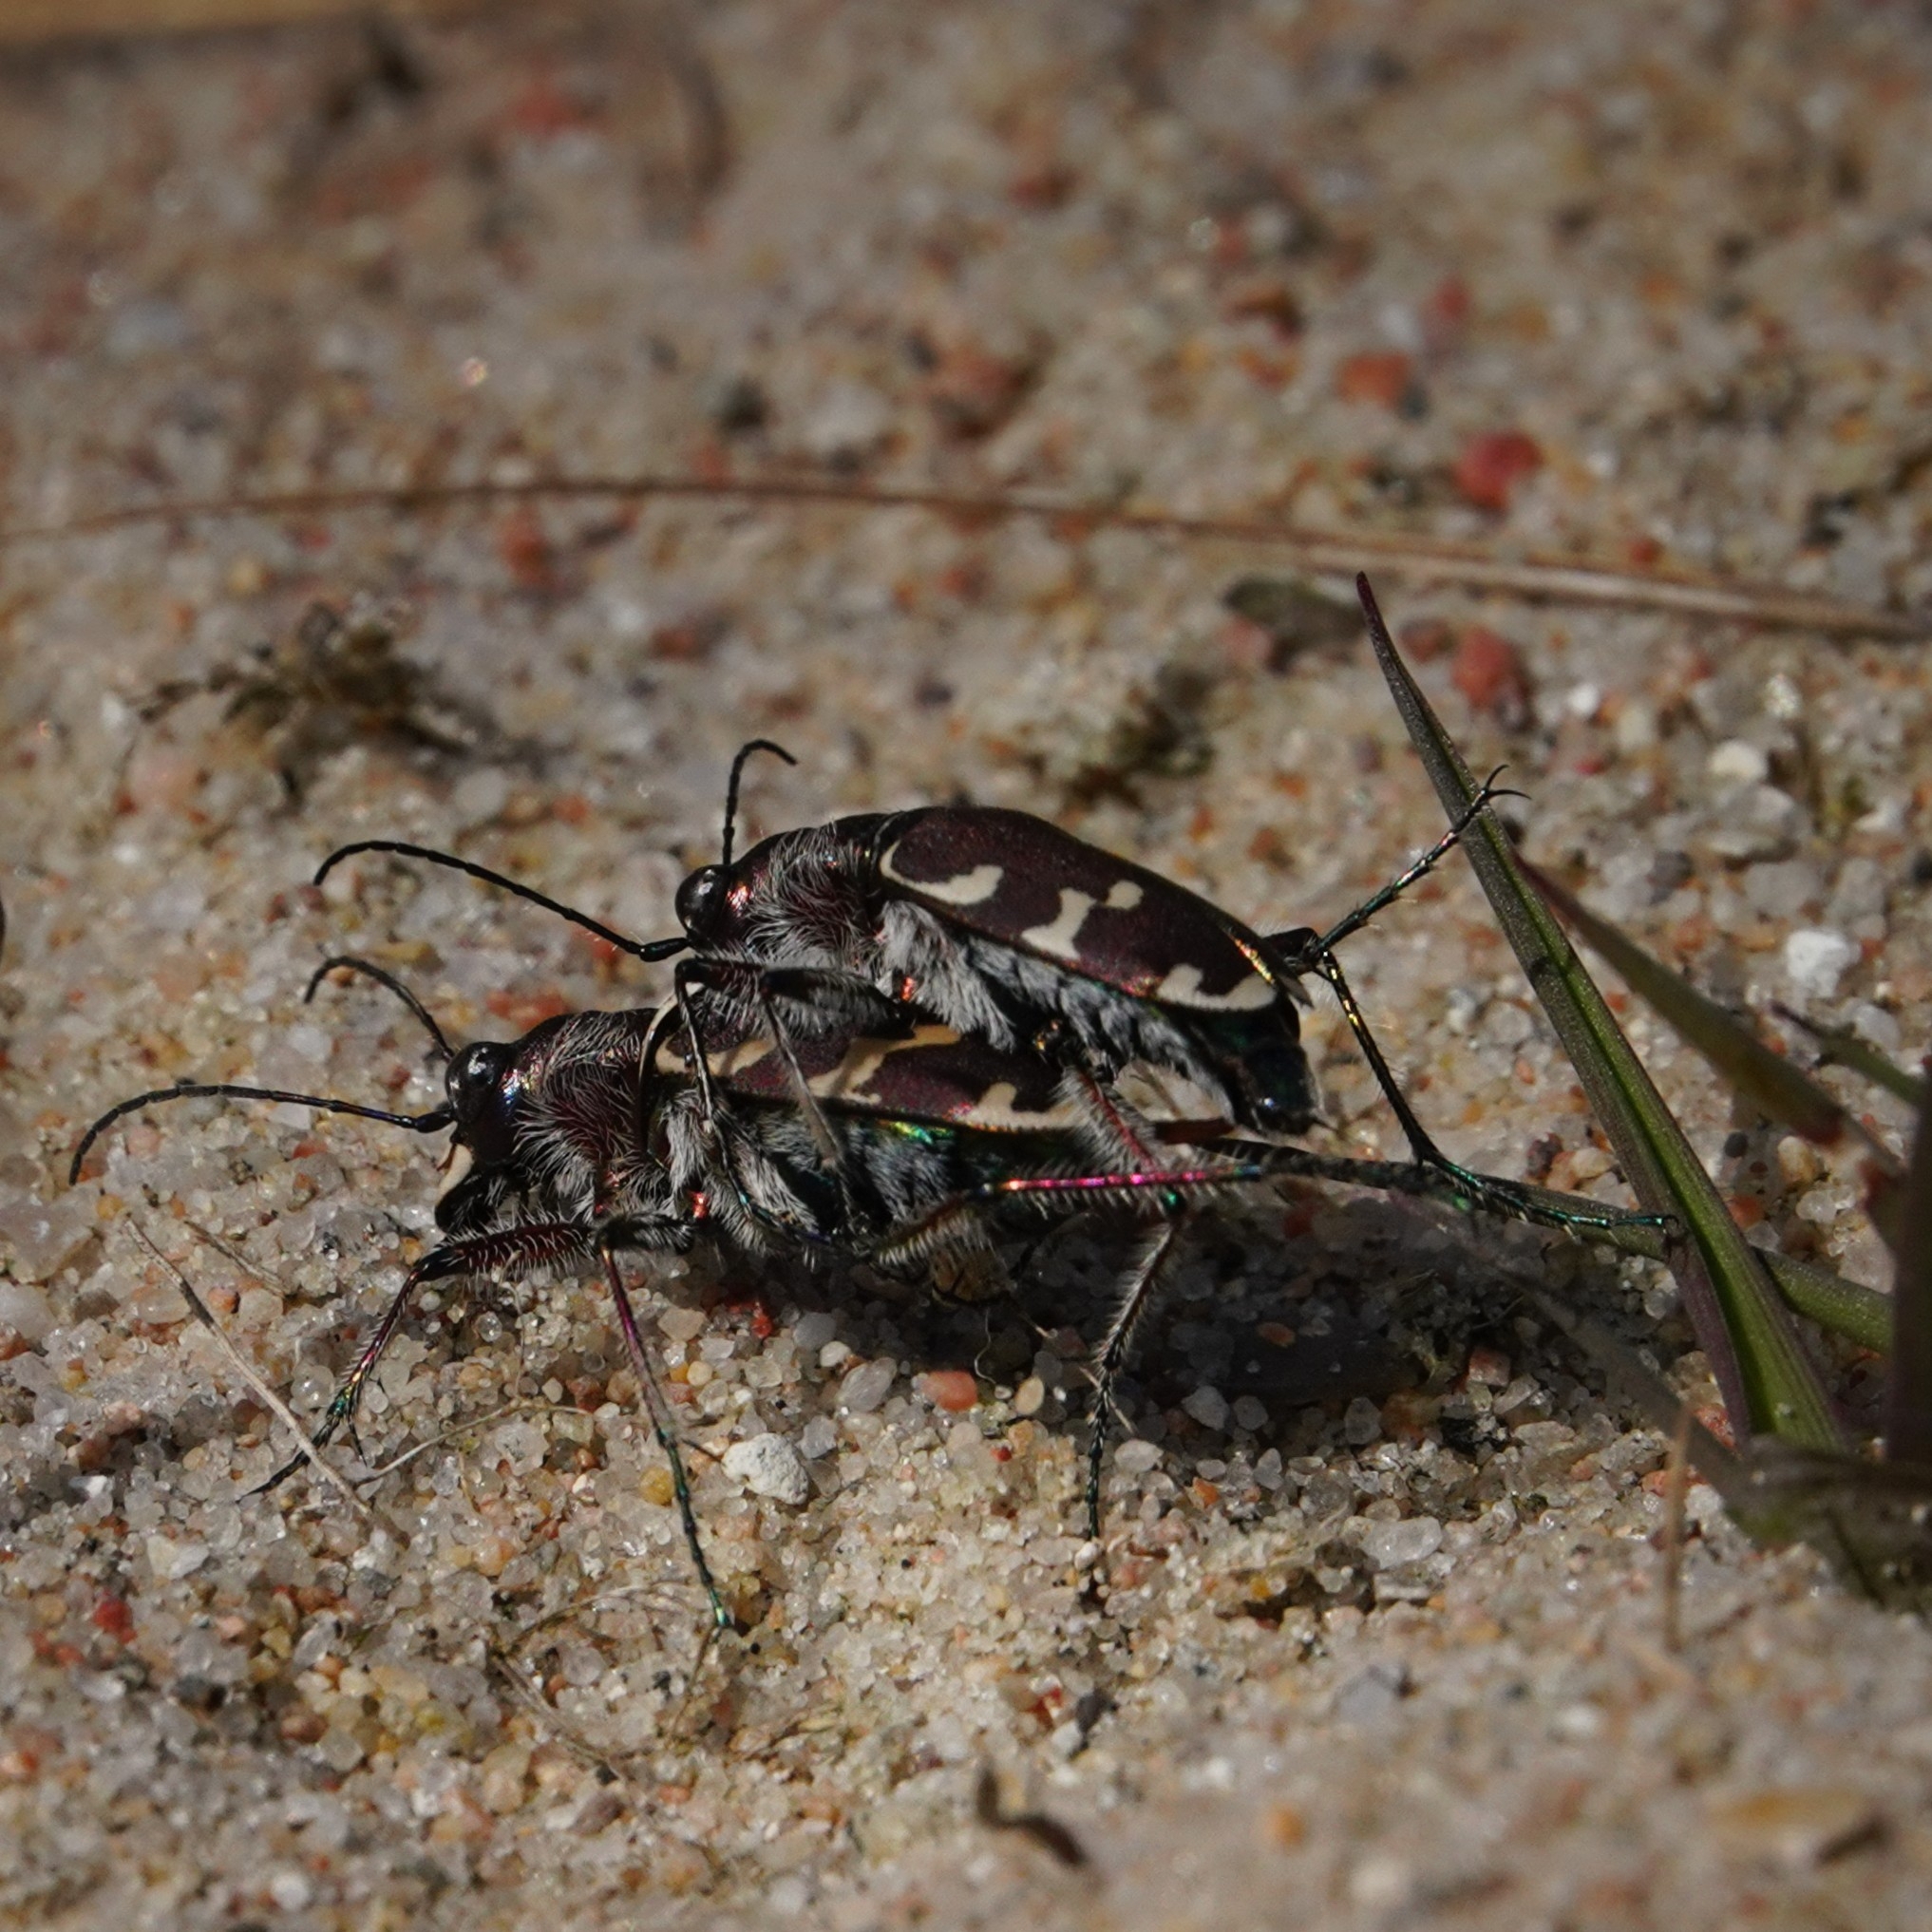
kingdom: Animalia
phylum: Arthropoda
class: Insecta
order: Coleoptera
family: Carabidae
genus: Cicindela
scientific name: Cicindela hybrida
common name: Northern dune tiger beetle
